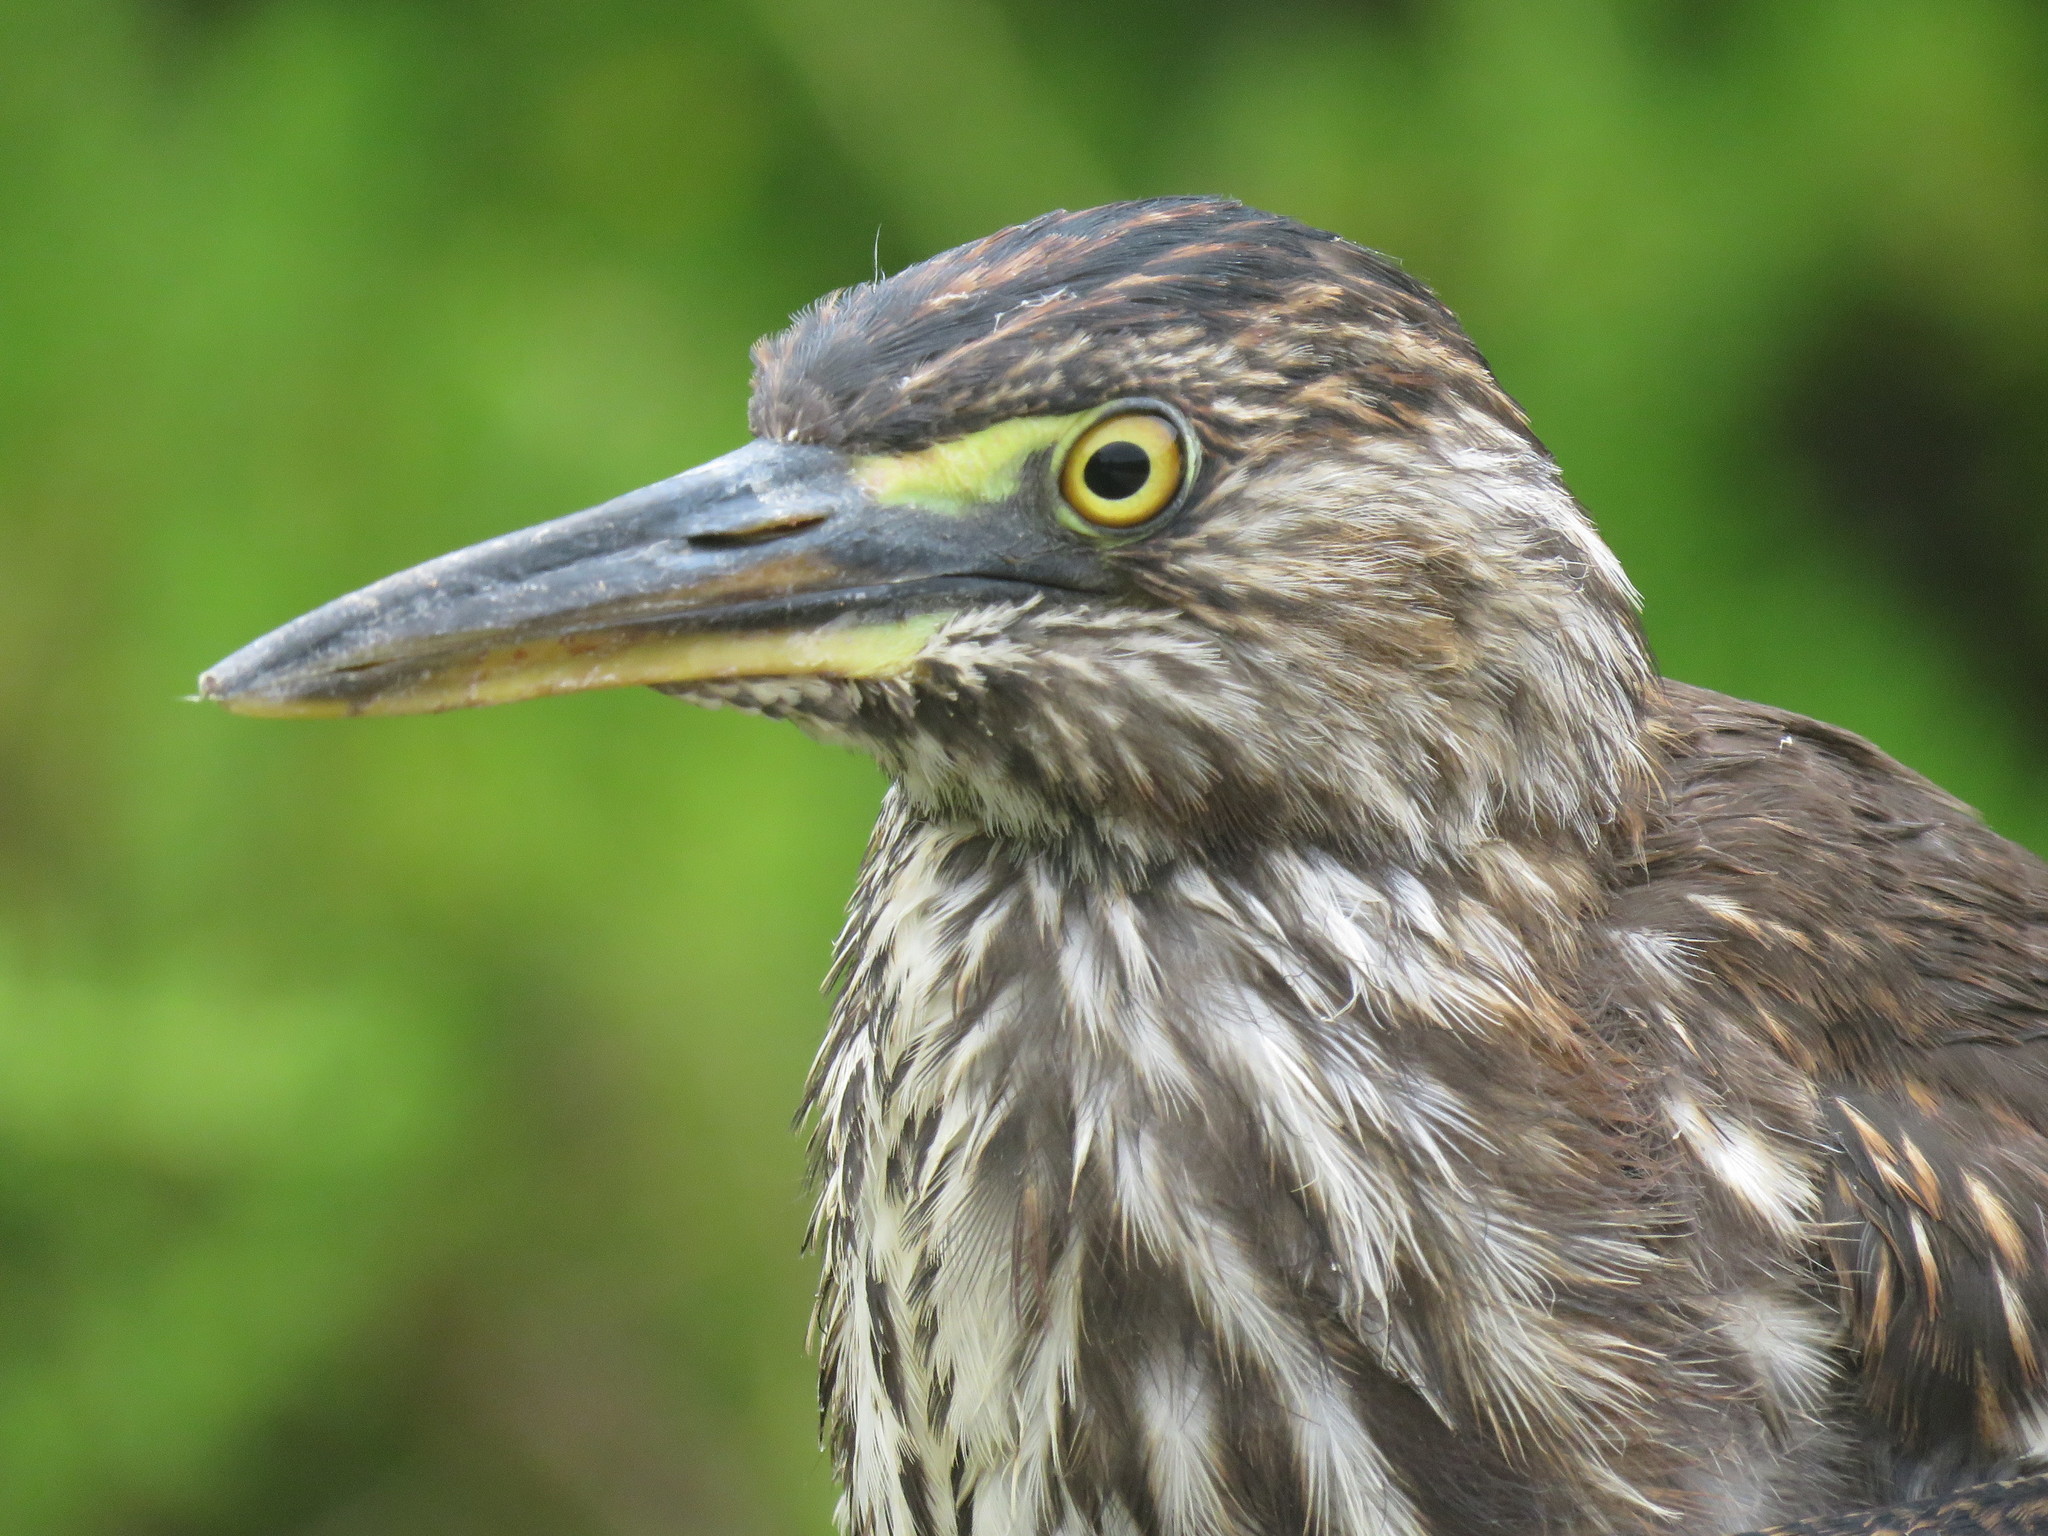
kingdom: Animalia
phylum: Chordata
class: Aves
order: Pelecaniformes
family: Ardeidae
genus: Butorides
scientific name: Butorides striata
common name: Striated heron
